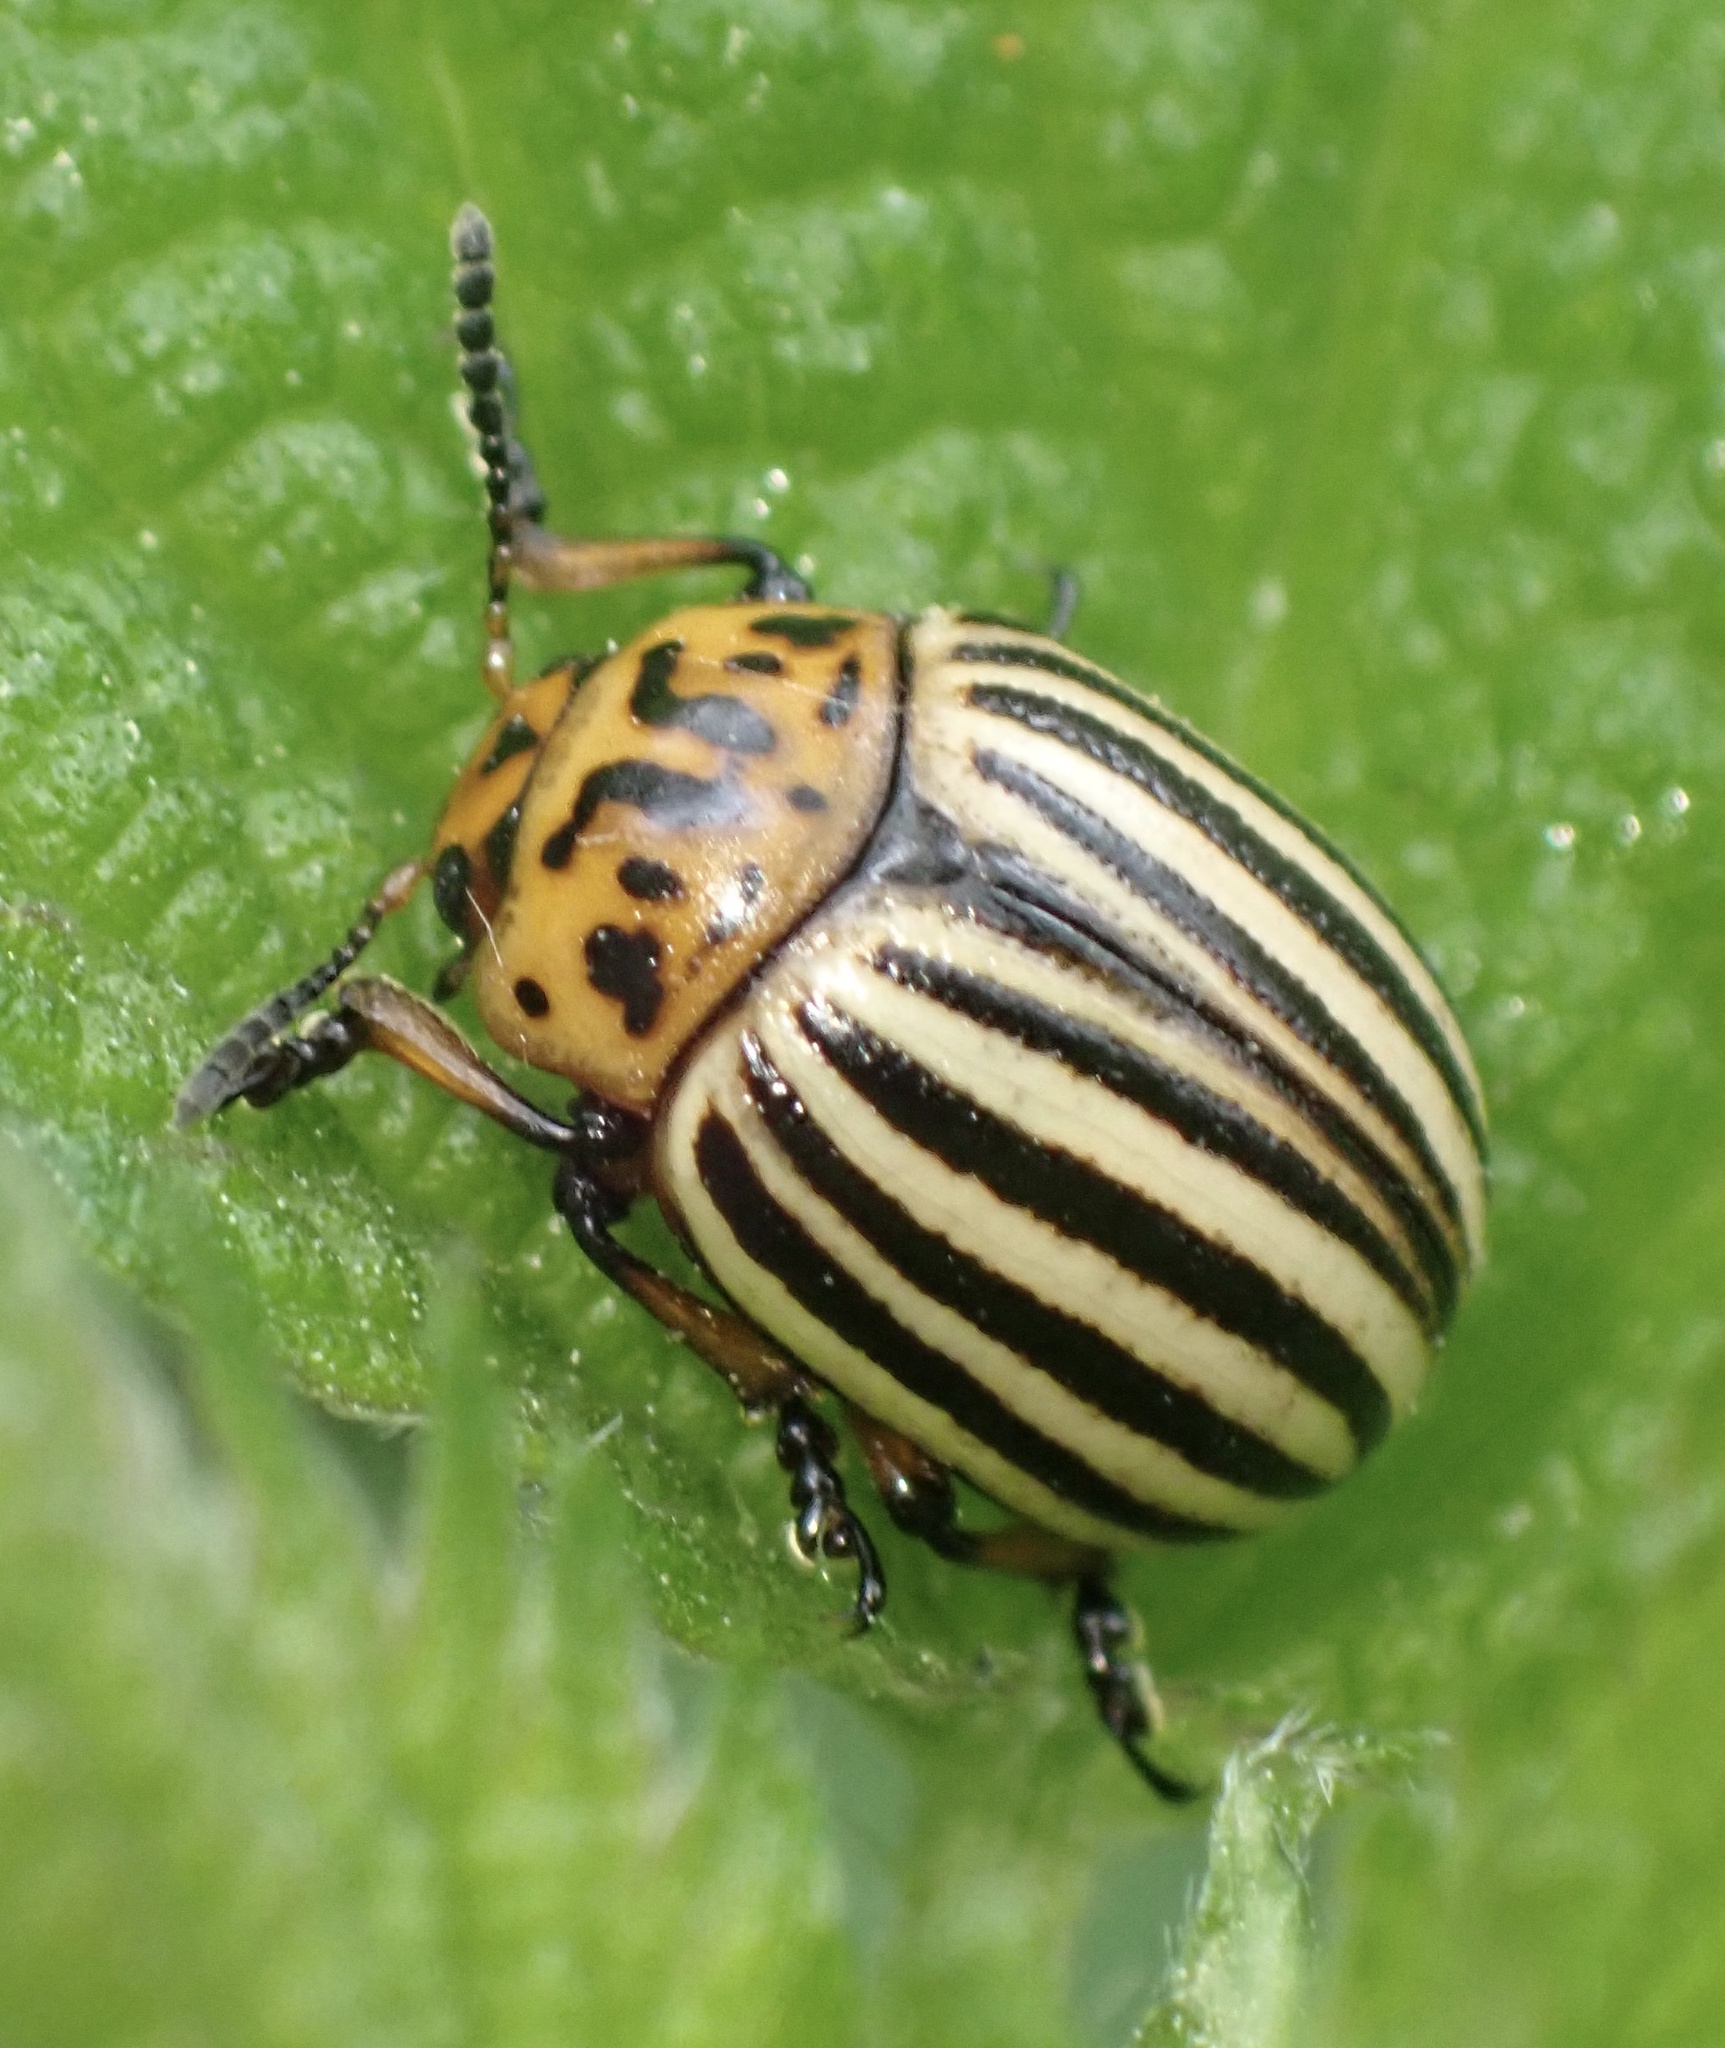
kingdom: Animalia
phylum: Arthropoda
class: Insecta
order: Coleoptera
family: Chrysomelidae
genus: Leptinotarsa
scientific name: Leptinotarsa decemlineata
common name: Colorado potato beetle
